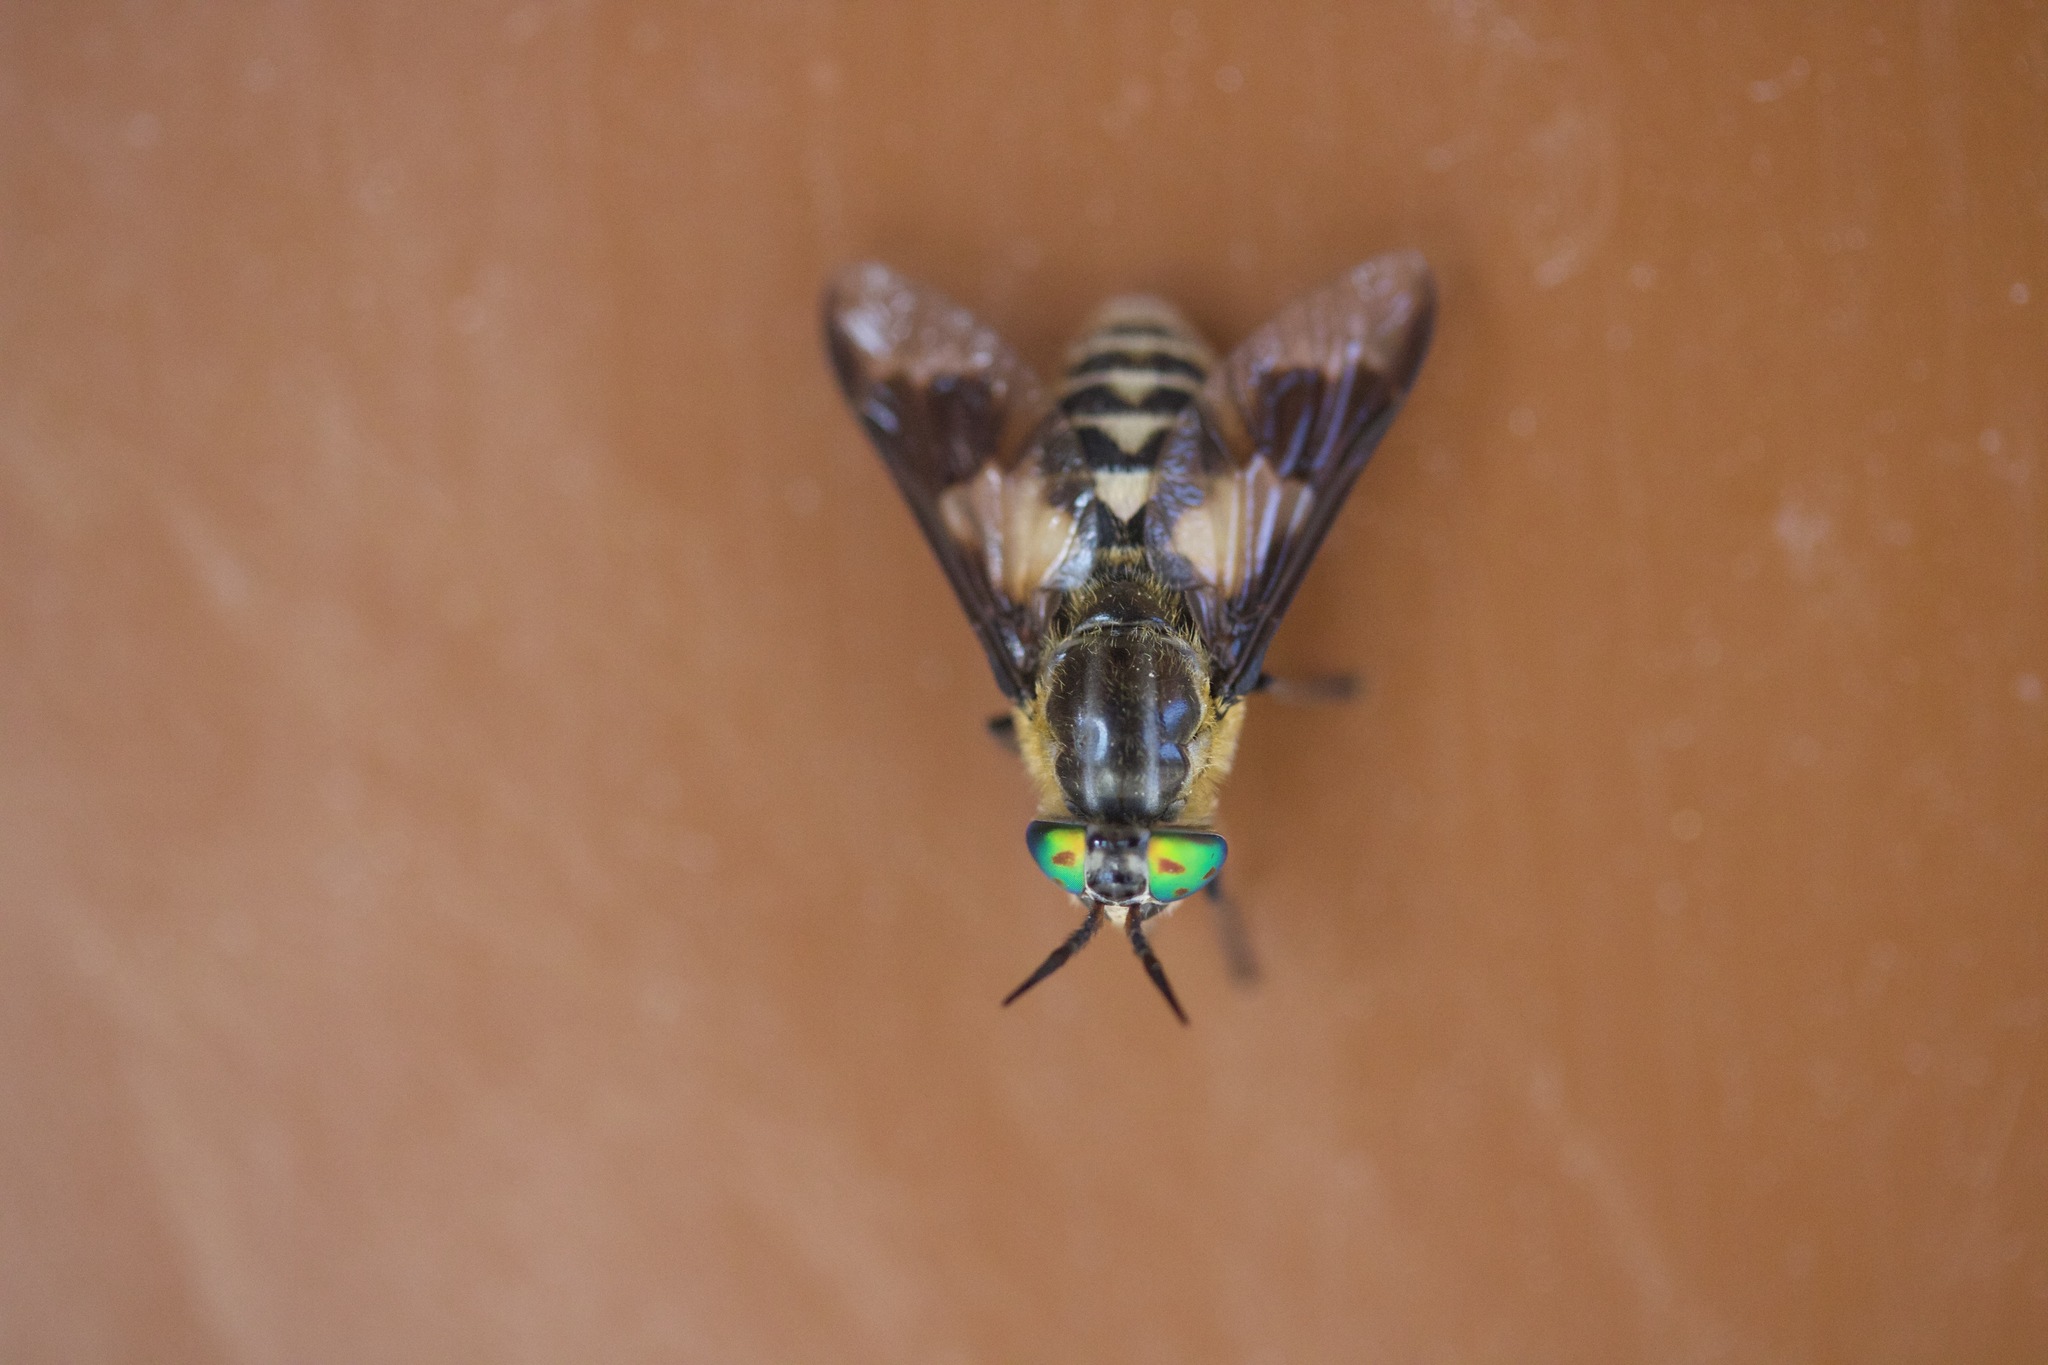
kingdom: Animalia
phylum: Arthropoda
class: Insecta
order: Diptera
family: Tabanidae
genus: Chrysops
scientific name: Chrysops divaricatus
